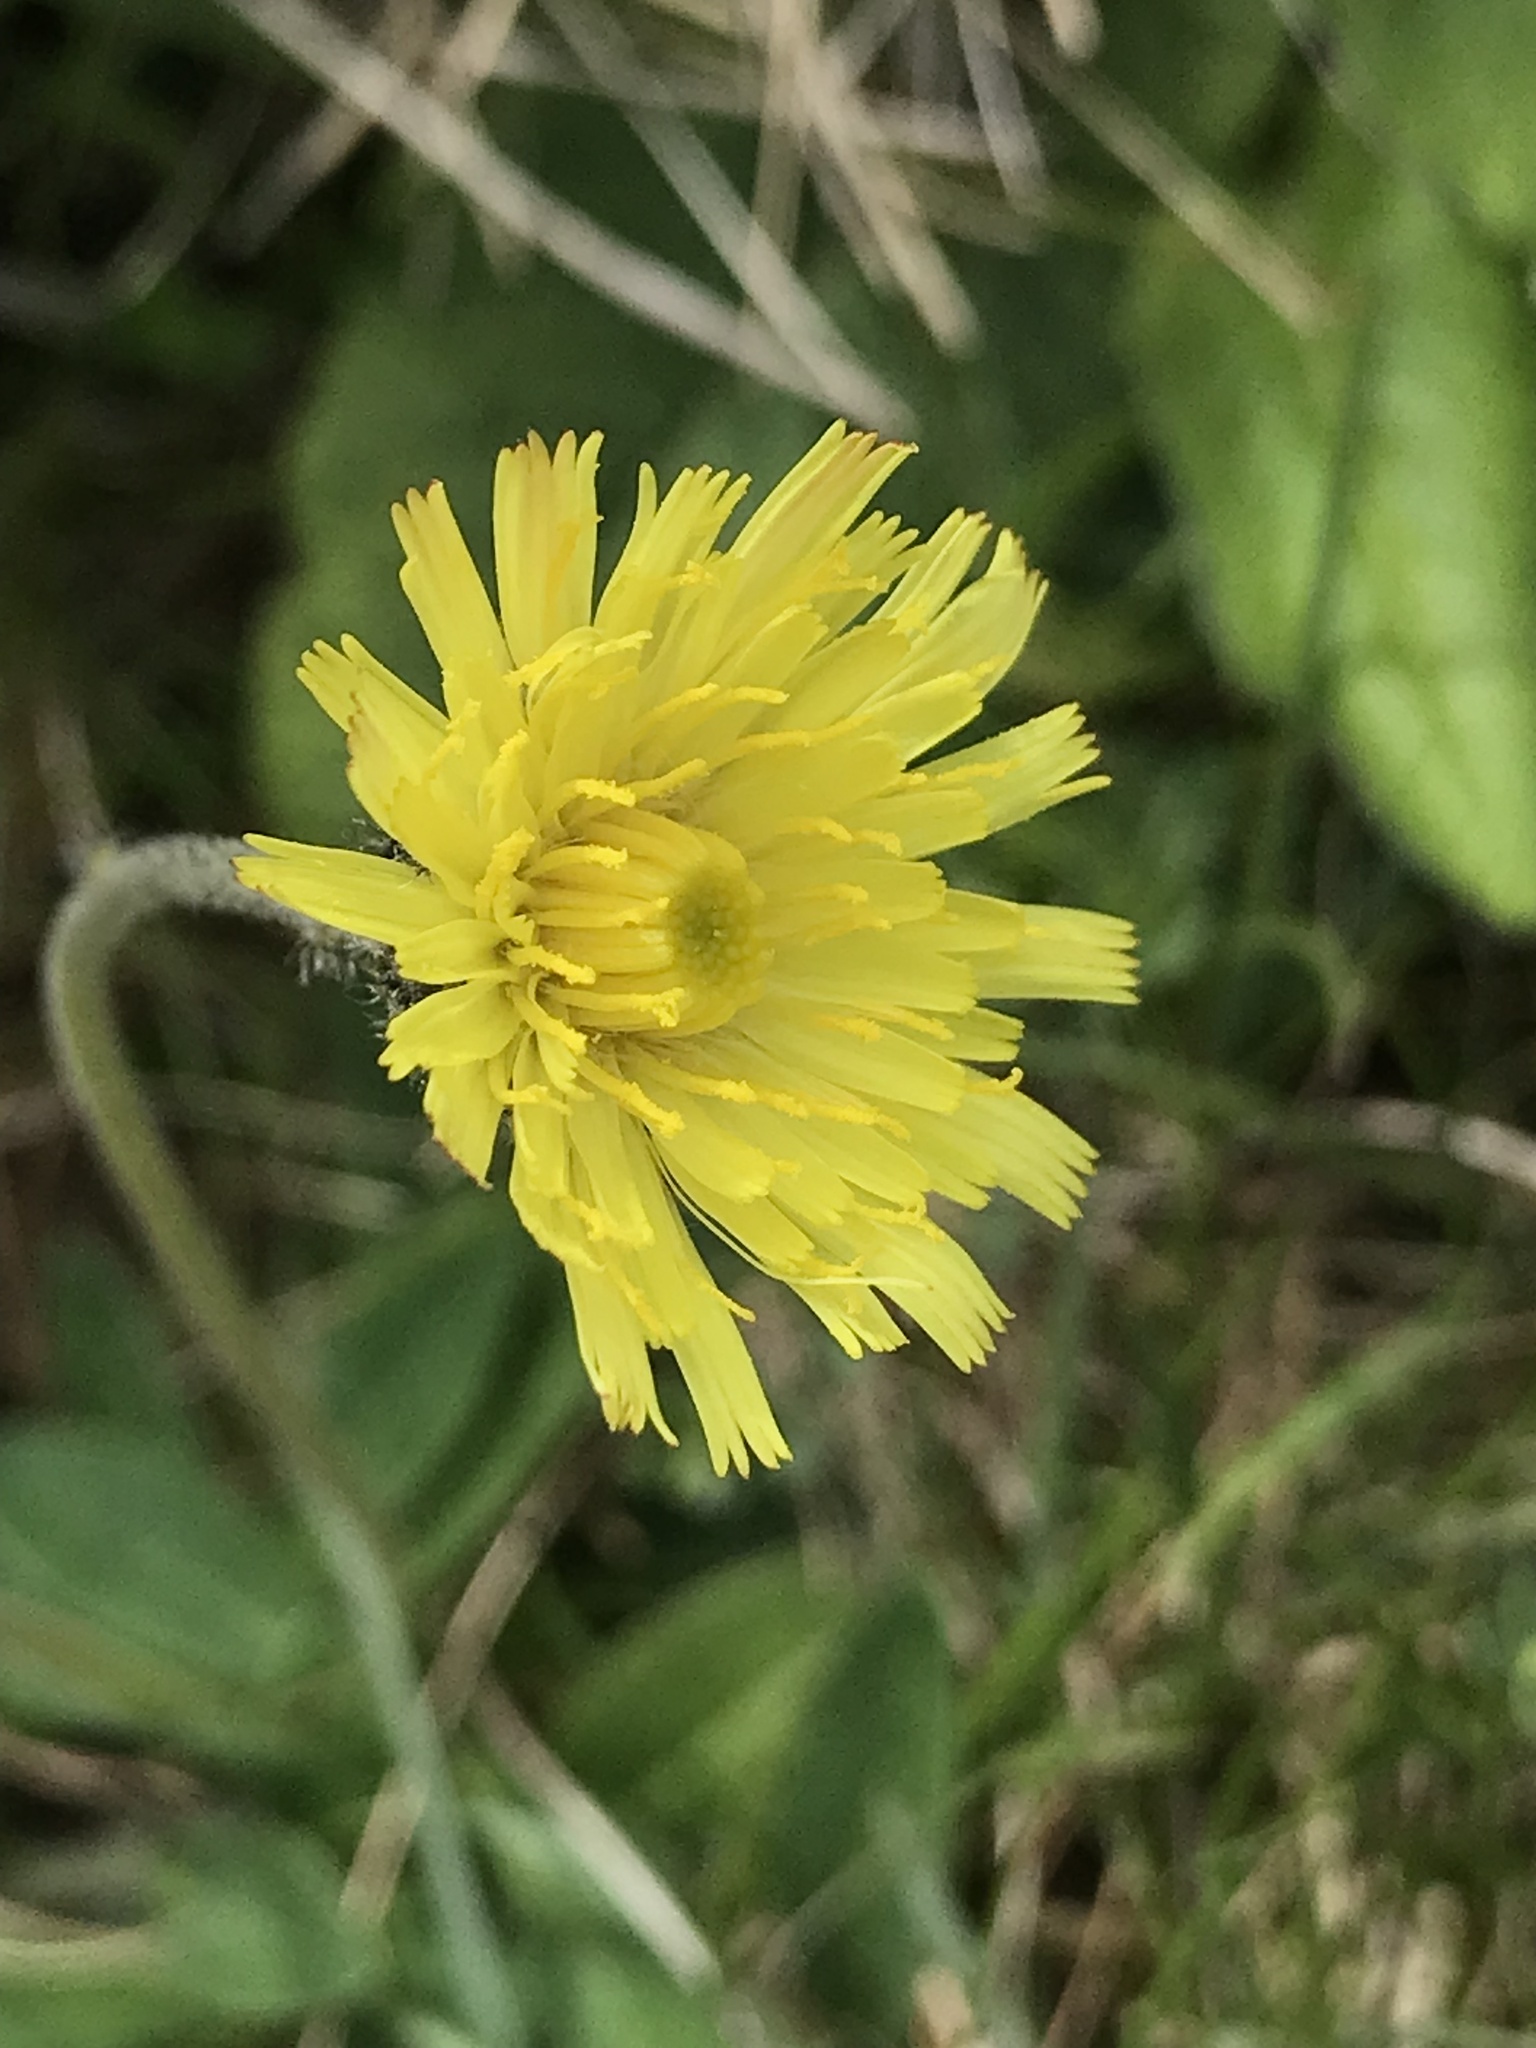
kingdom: Plantae
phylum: Tracheophyta
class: Magnoliopsida
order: Asterales
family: Asteraceae
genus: Pilosella
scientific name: Pilosella officinarum
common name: Mouse-ear hawkweed
